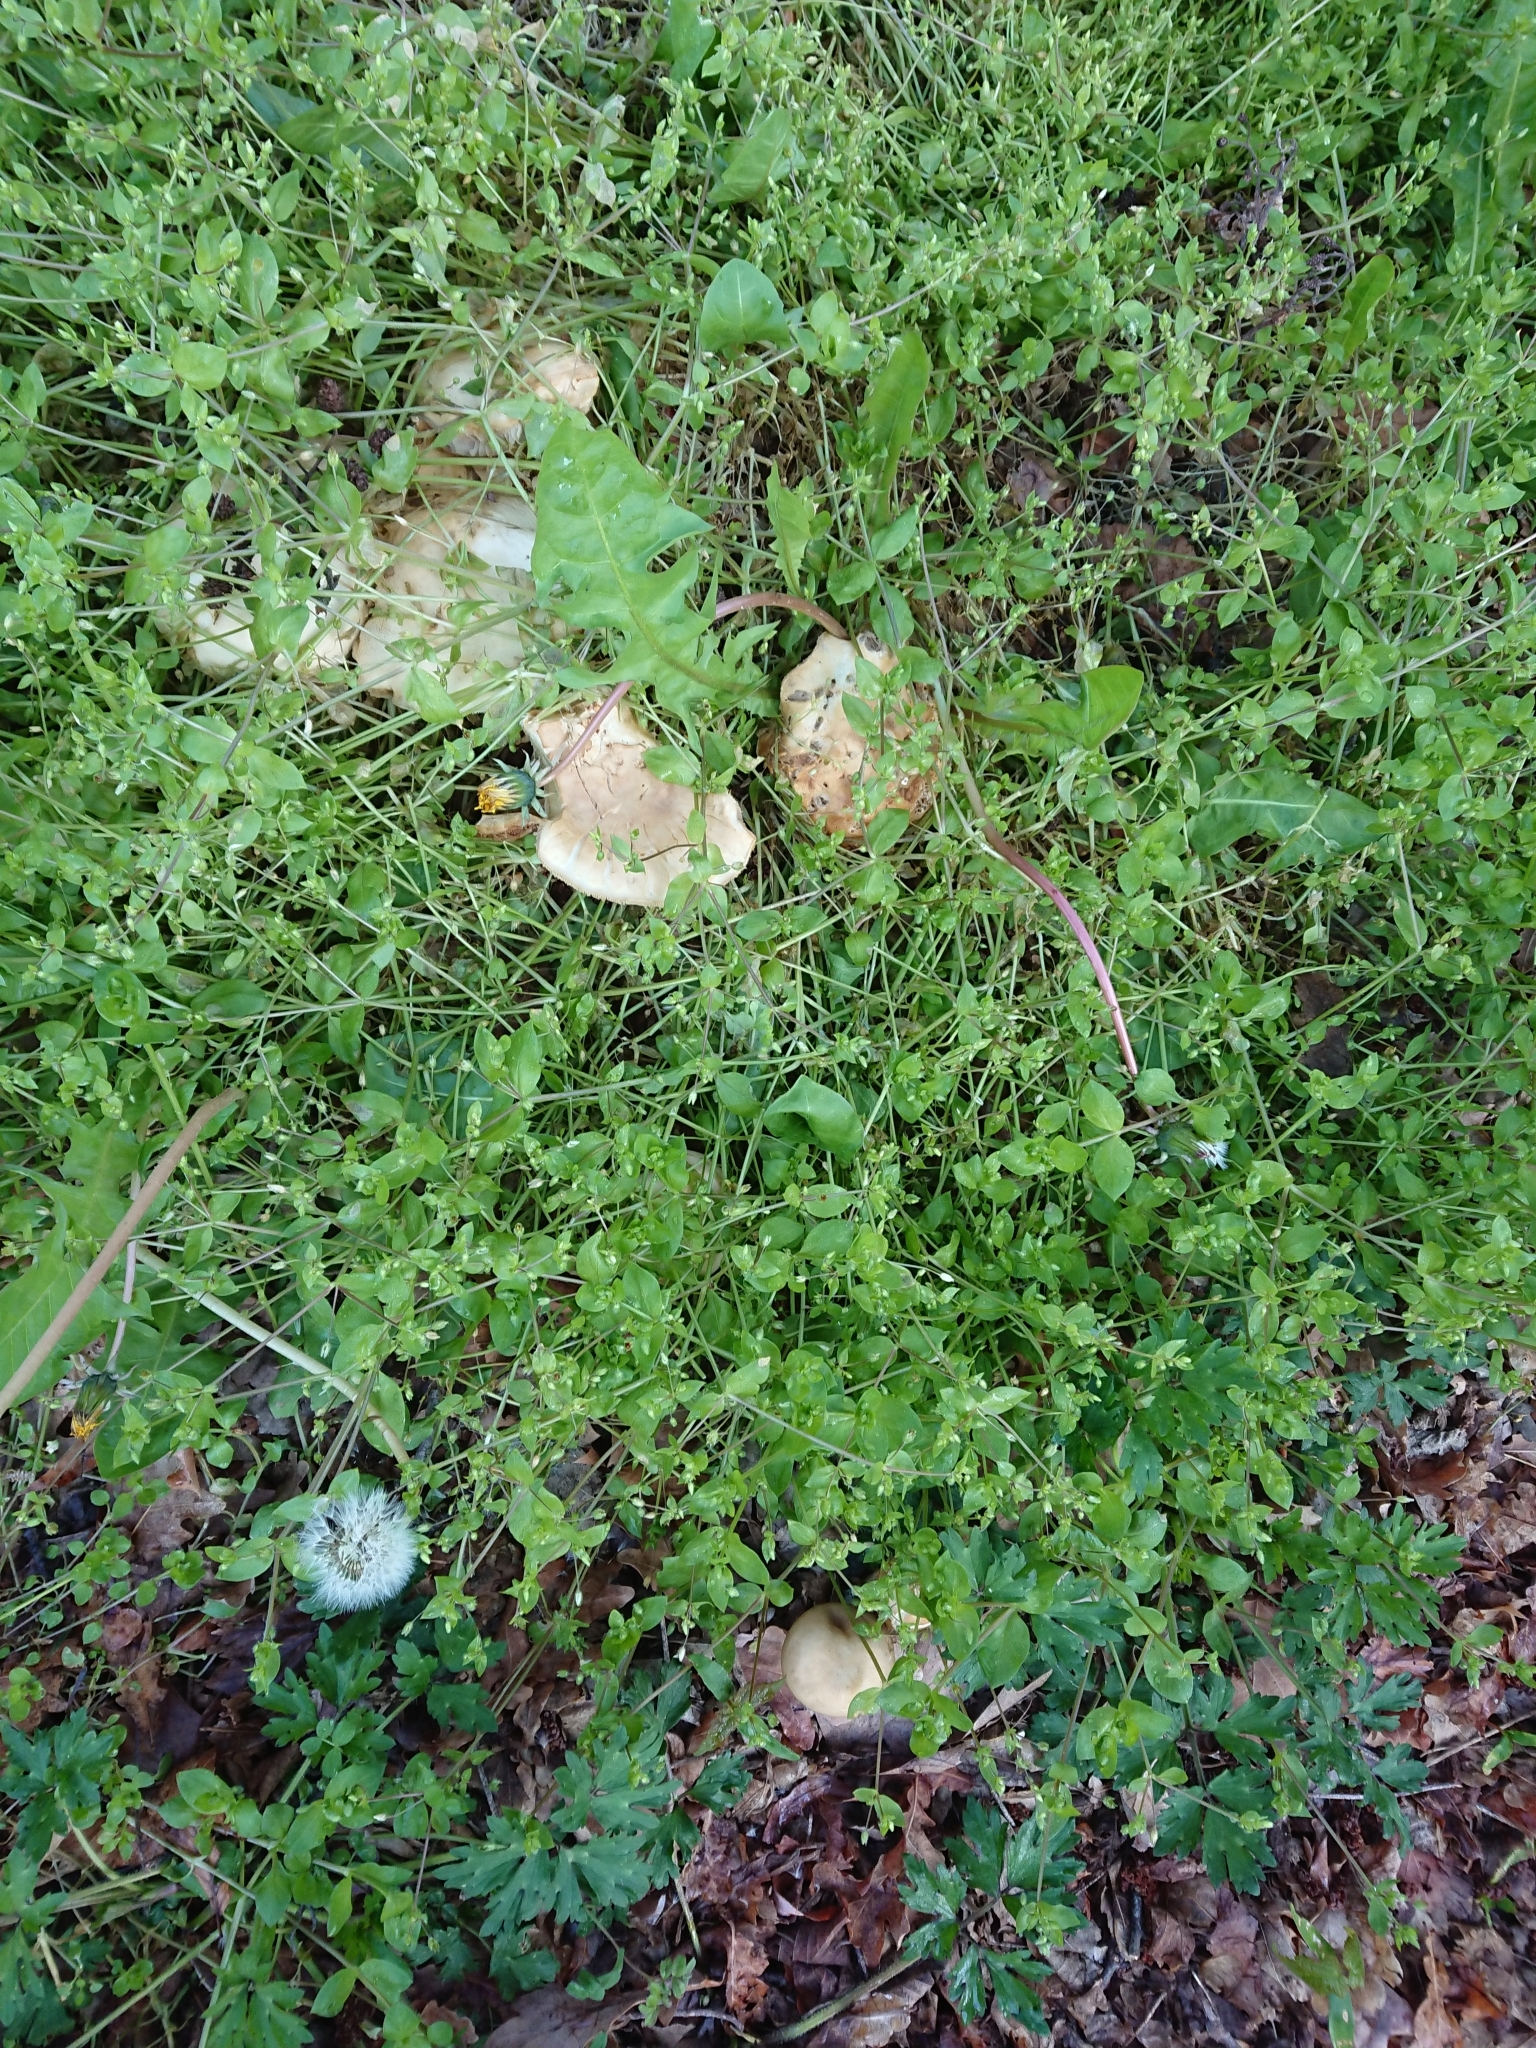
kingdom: Fungi
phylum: Basidiomycota
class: Agaricomycetes
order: Agaricales
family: Strophariaceae
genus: Agrocybe
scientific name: Agrocybe praecox
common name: Spring fieldcap
